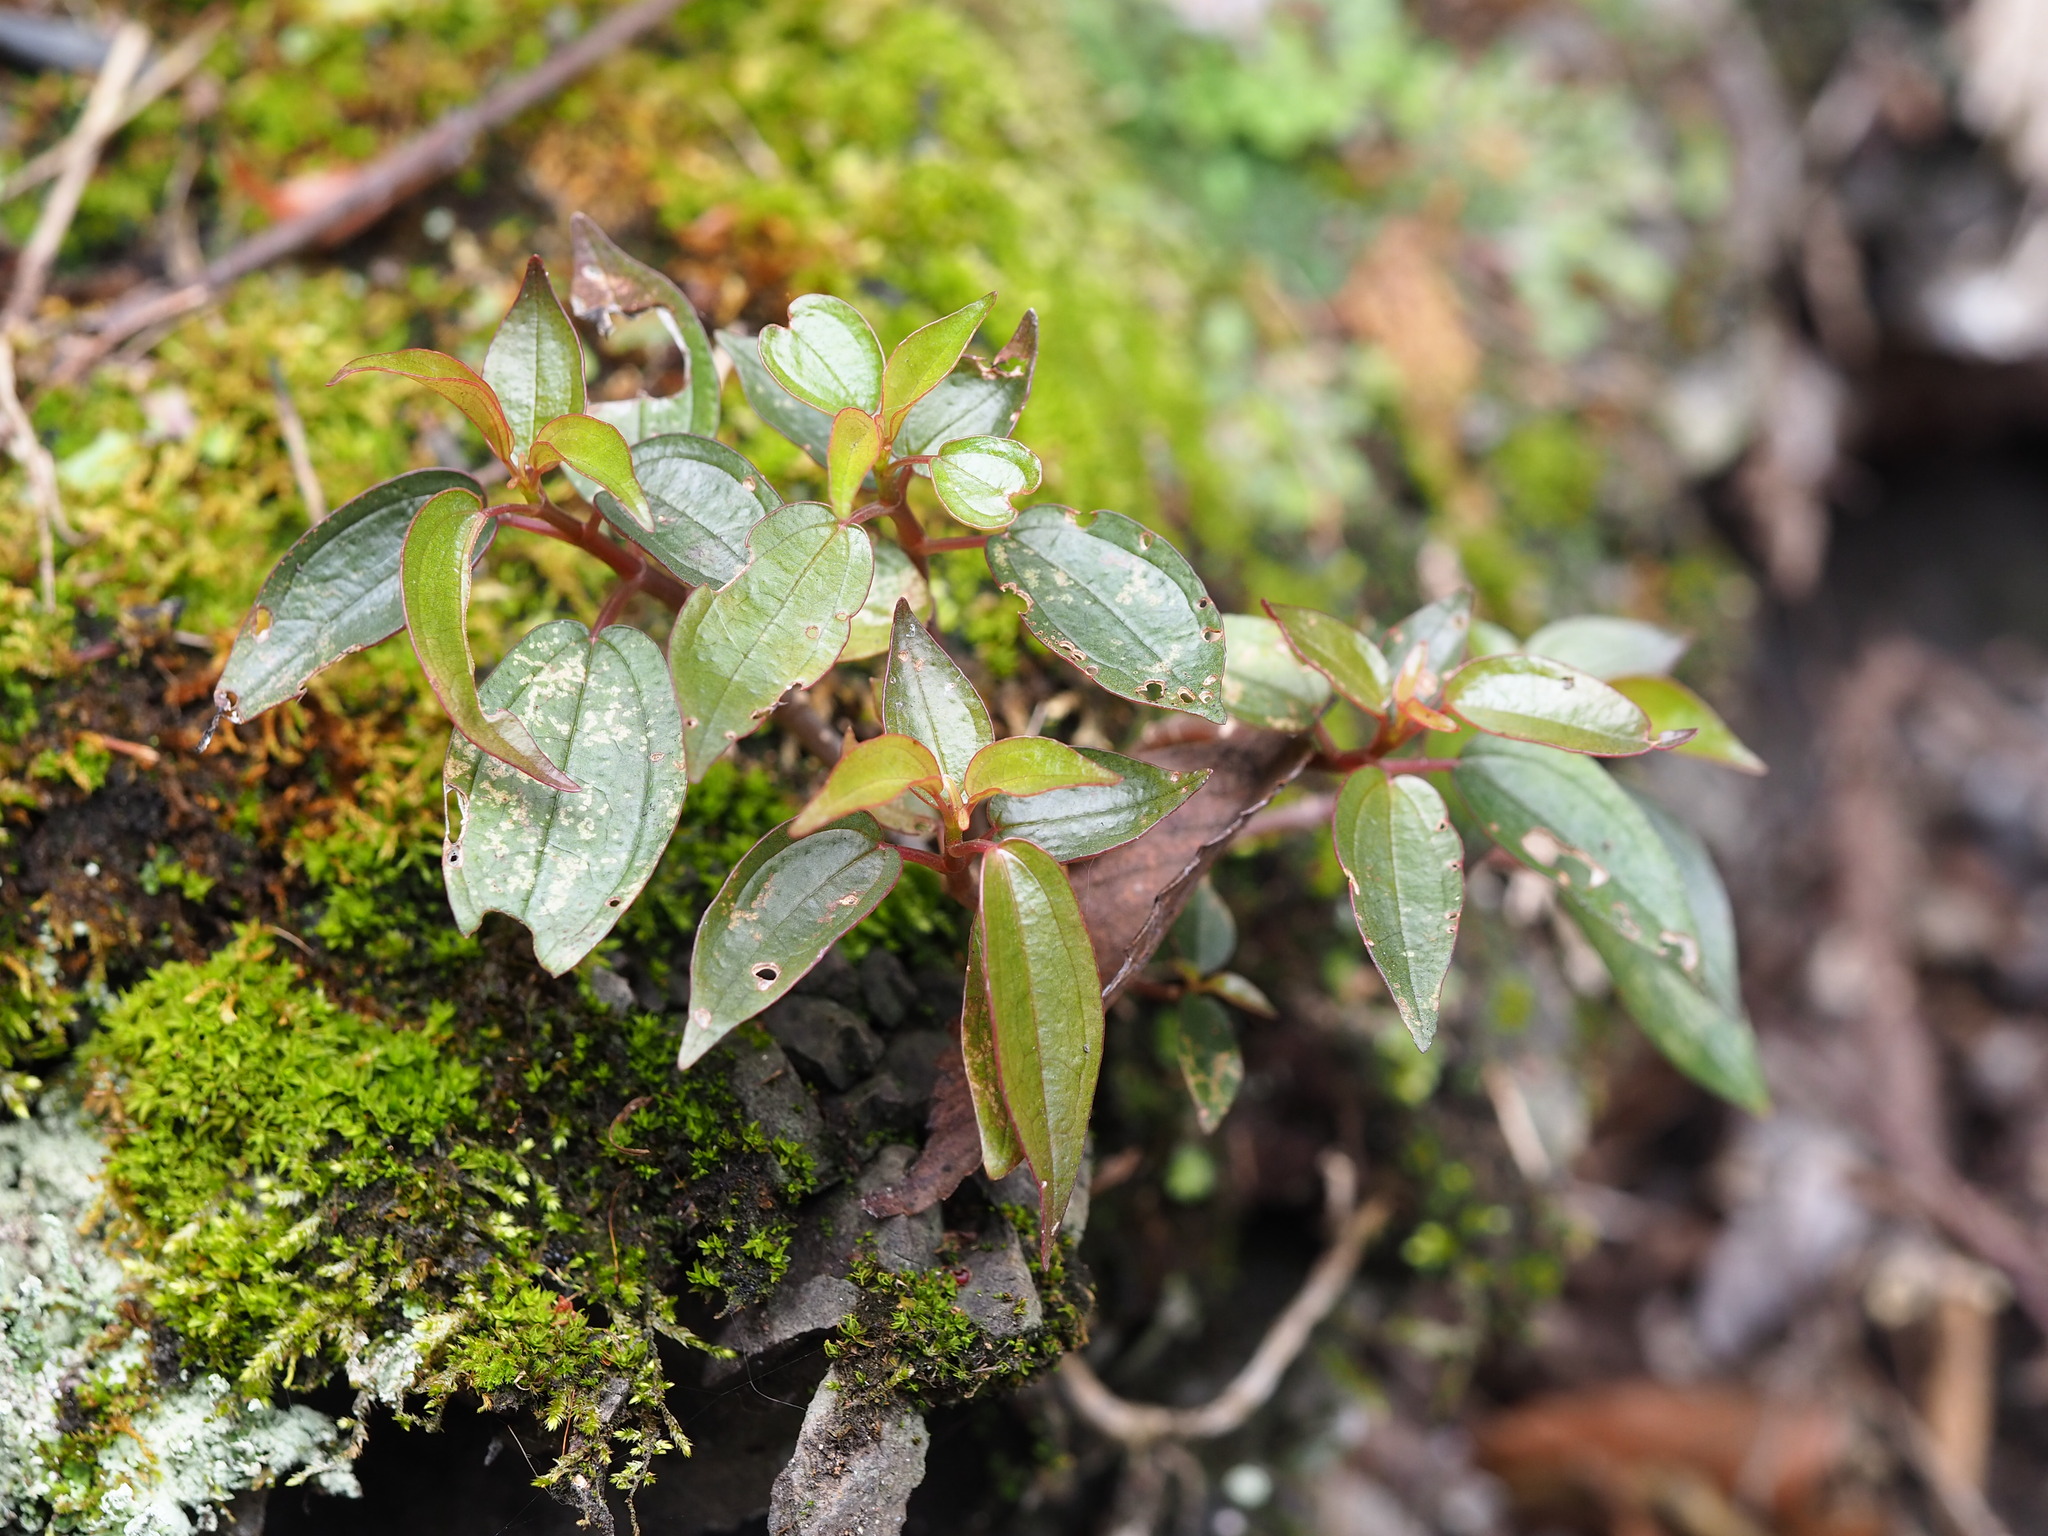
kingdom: Plantae
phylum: Tracheophyta
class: Magnoliopsida
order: Rosales
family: Urticaceae
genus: Pilea
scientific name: Pilea plataniflora
